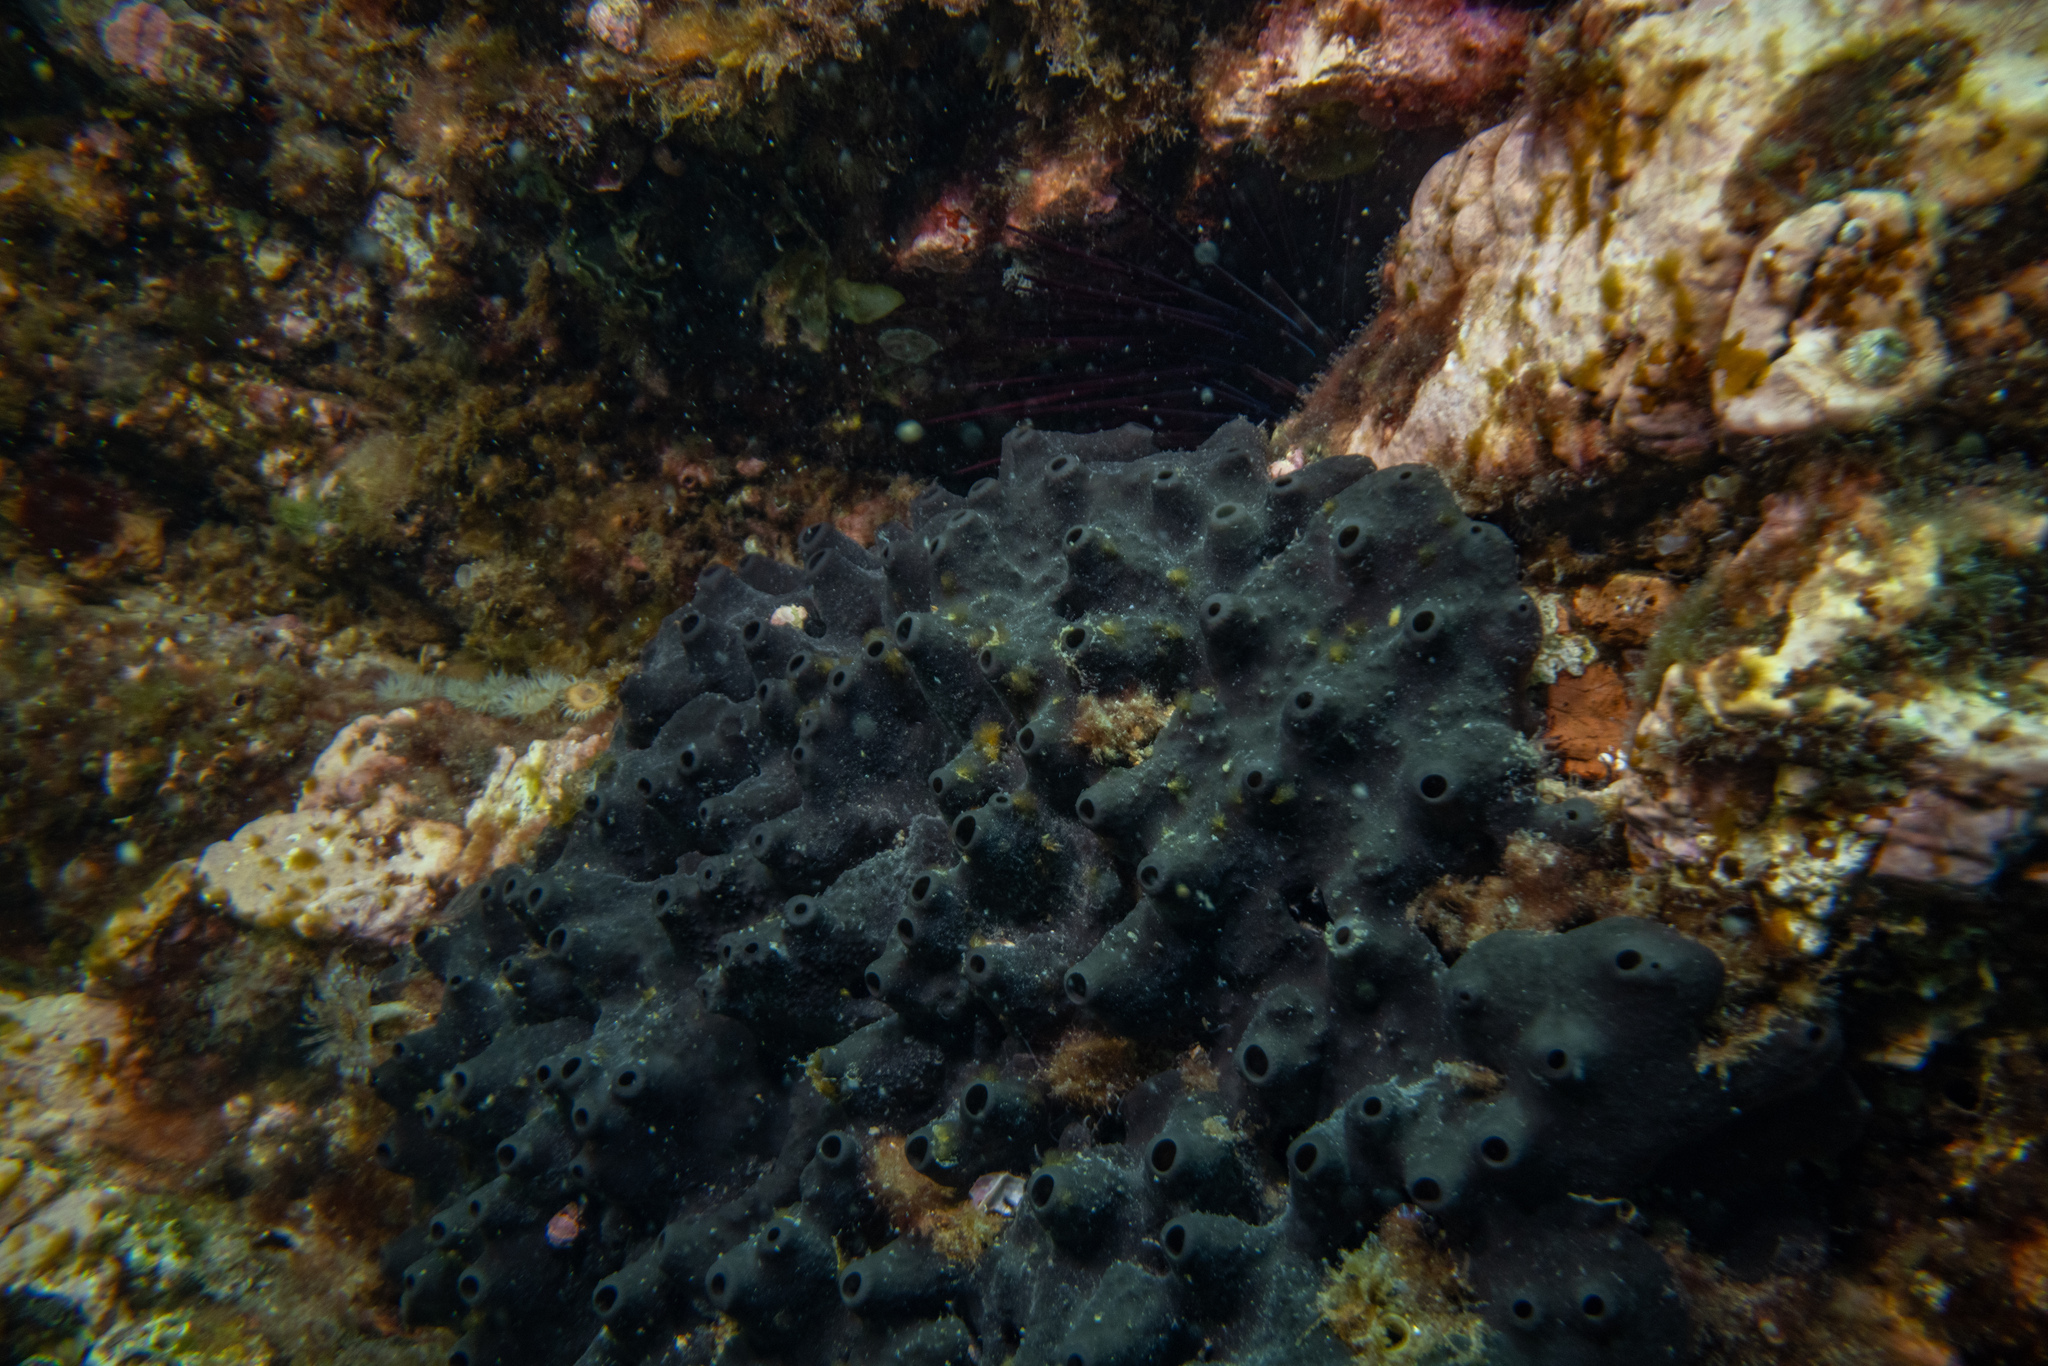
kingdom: Animalia
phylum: Echinodermata
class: Echinoidea
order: Diadematoida
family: Diadematidae
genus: Centrostephanus
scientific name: Centrostephanus rodgersii
